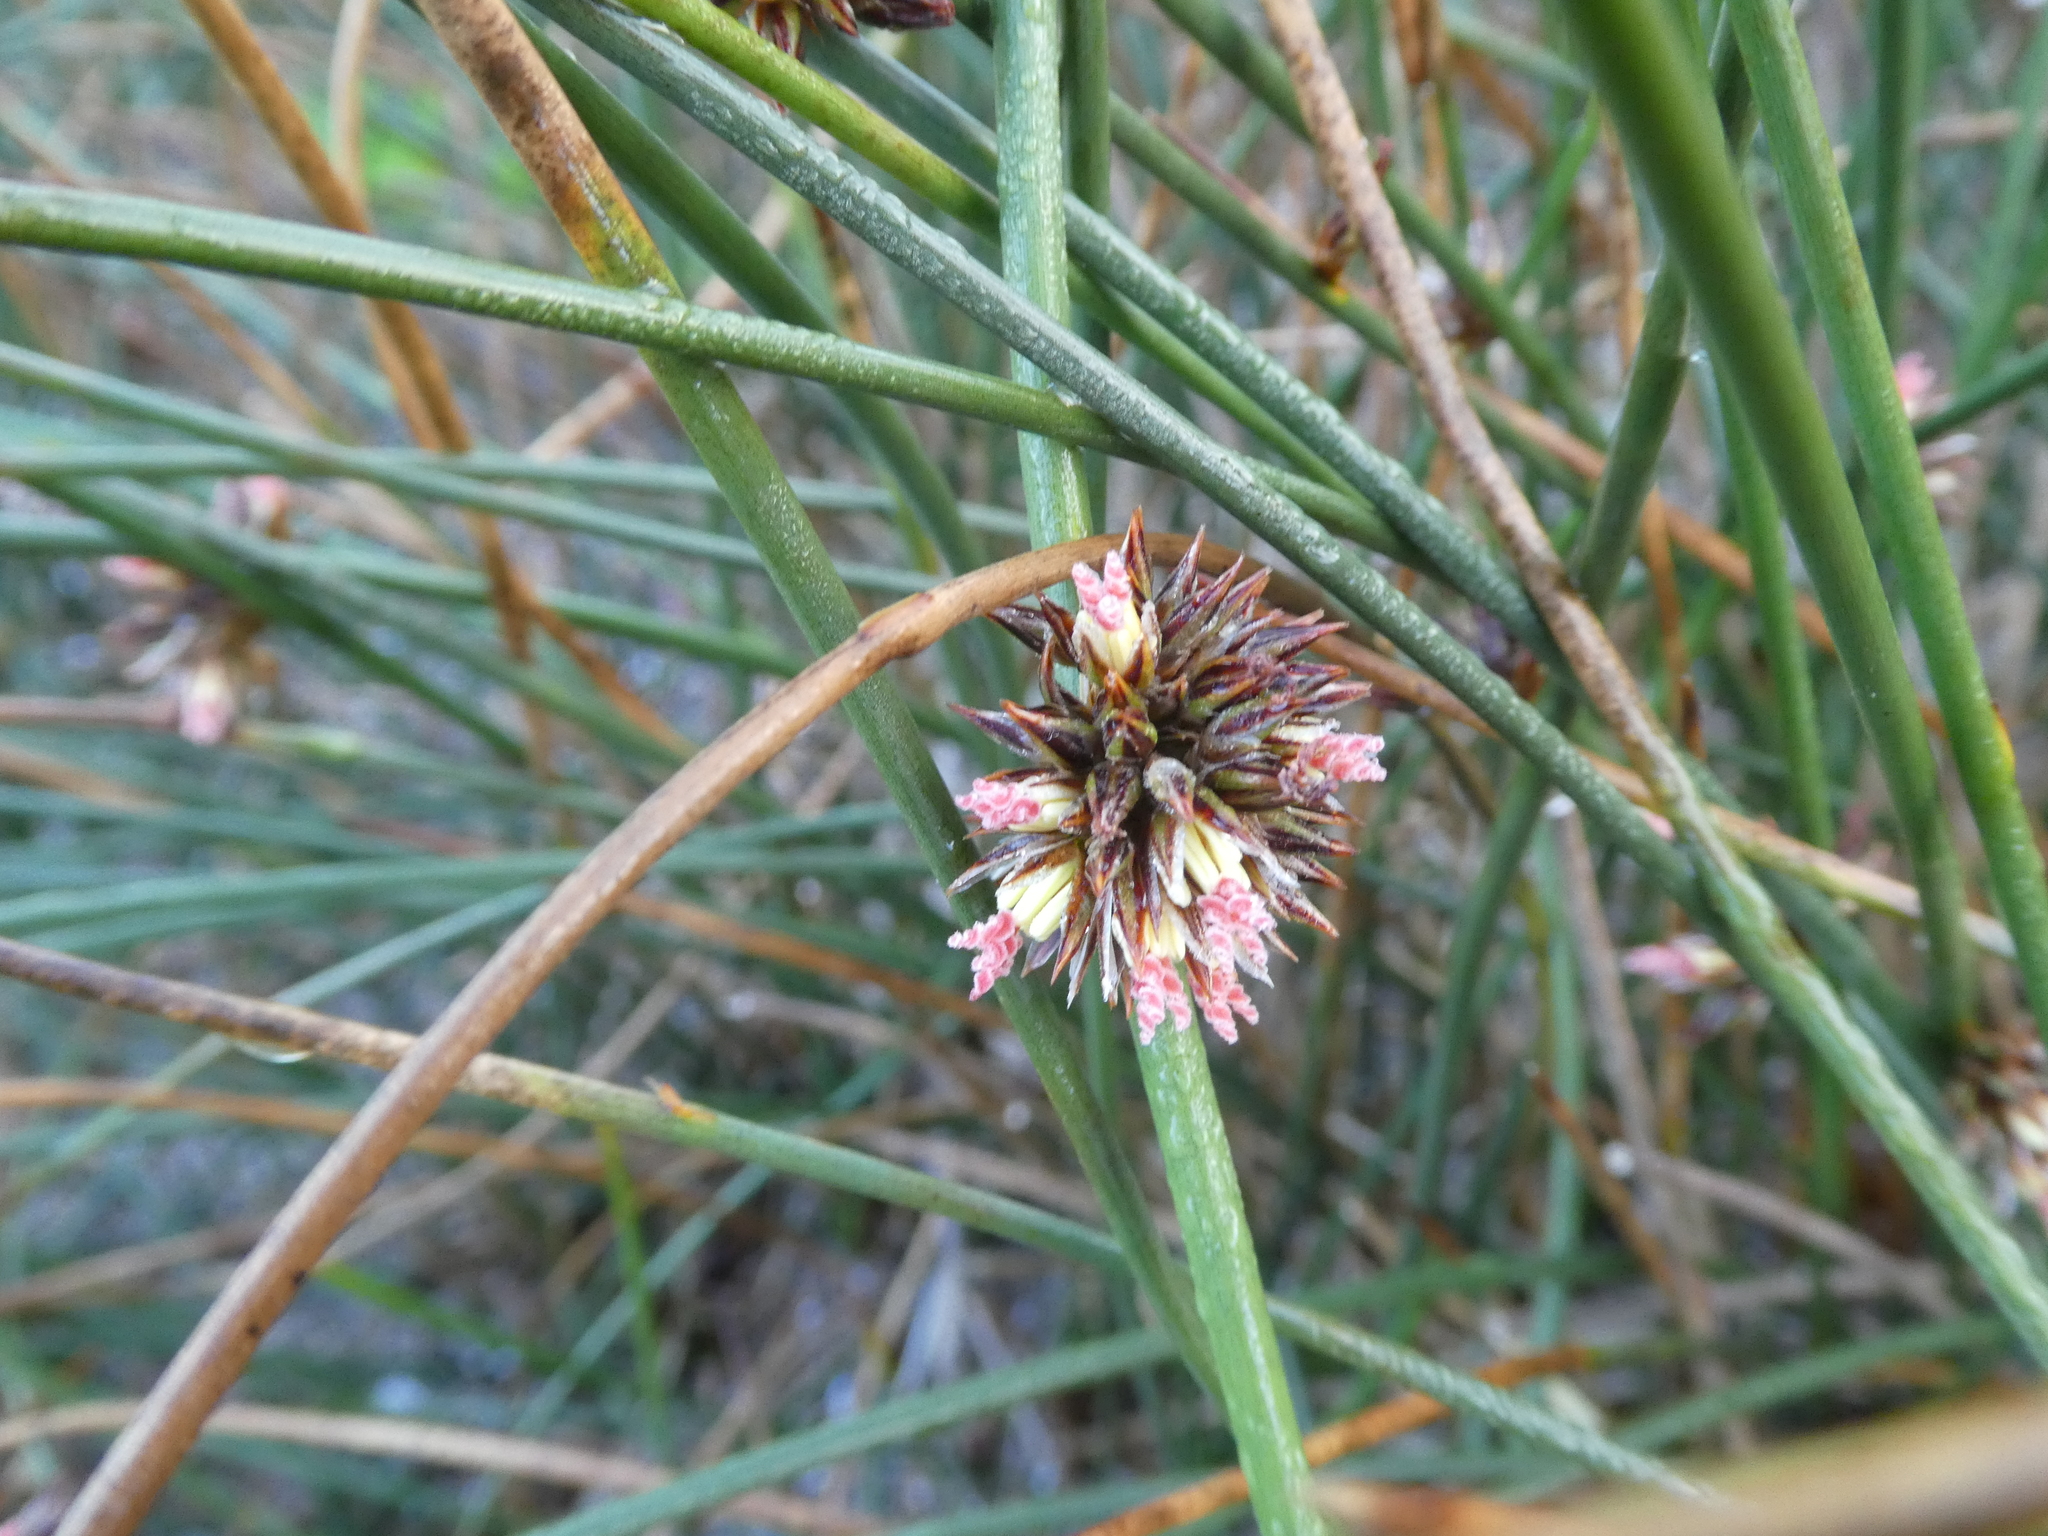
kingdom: Plantae
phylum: Tracheophyta
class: Liliopsida
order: Poales
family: Juncaceae
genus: Juncus
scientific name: Juncus breweri
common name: Brewer's rush
